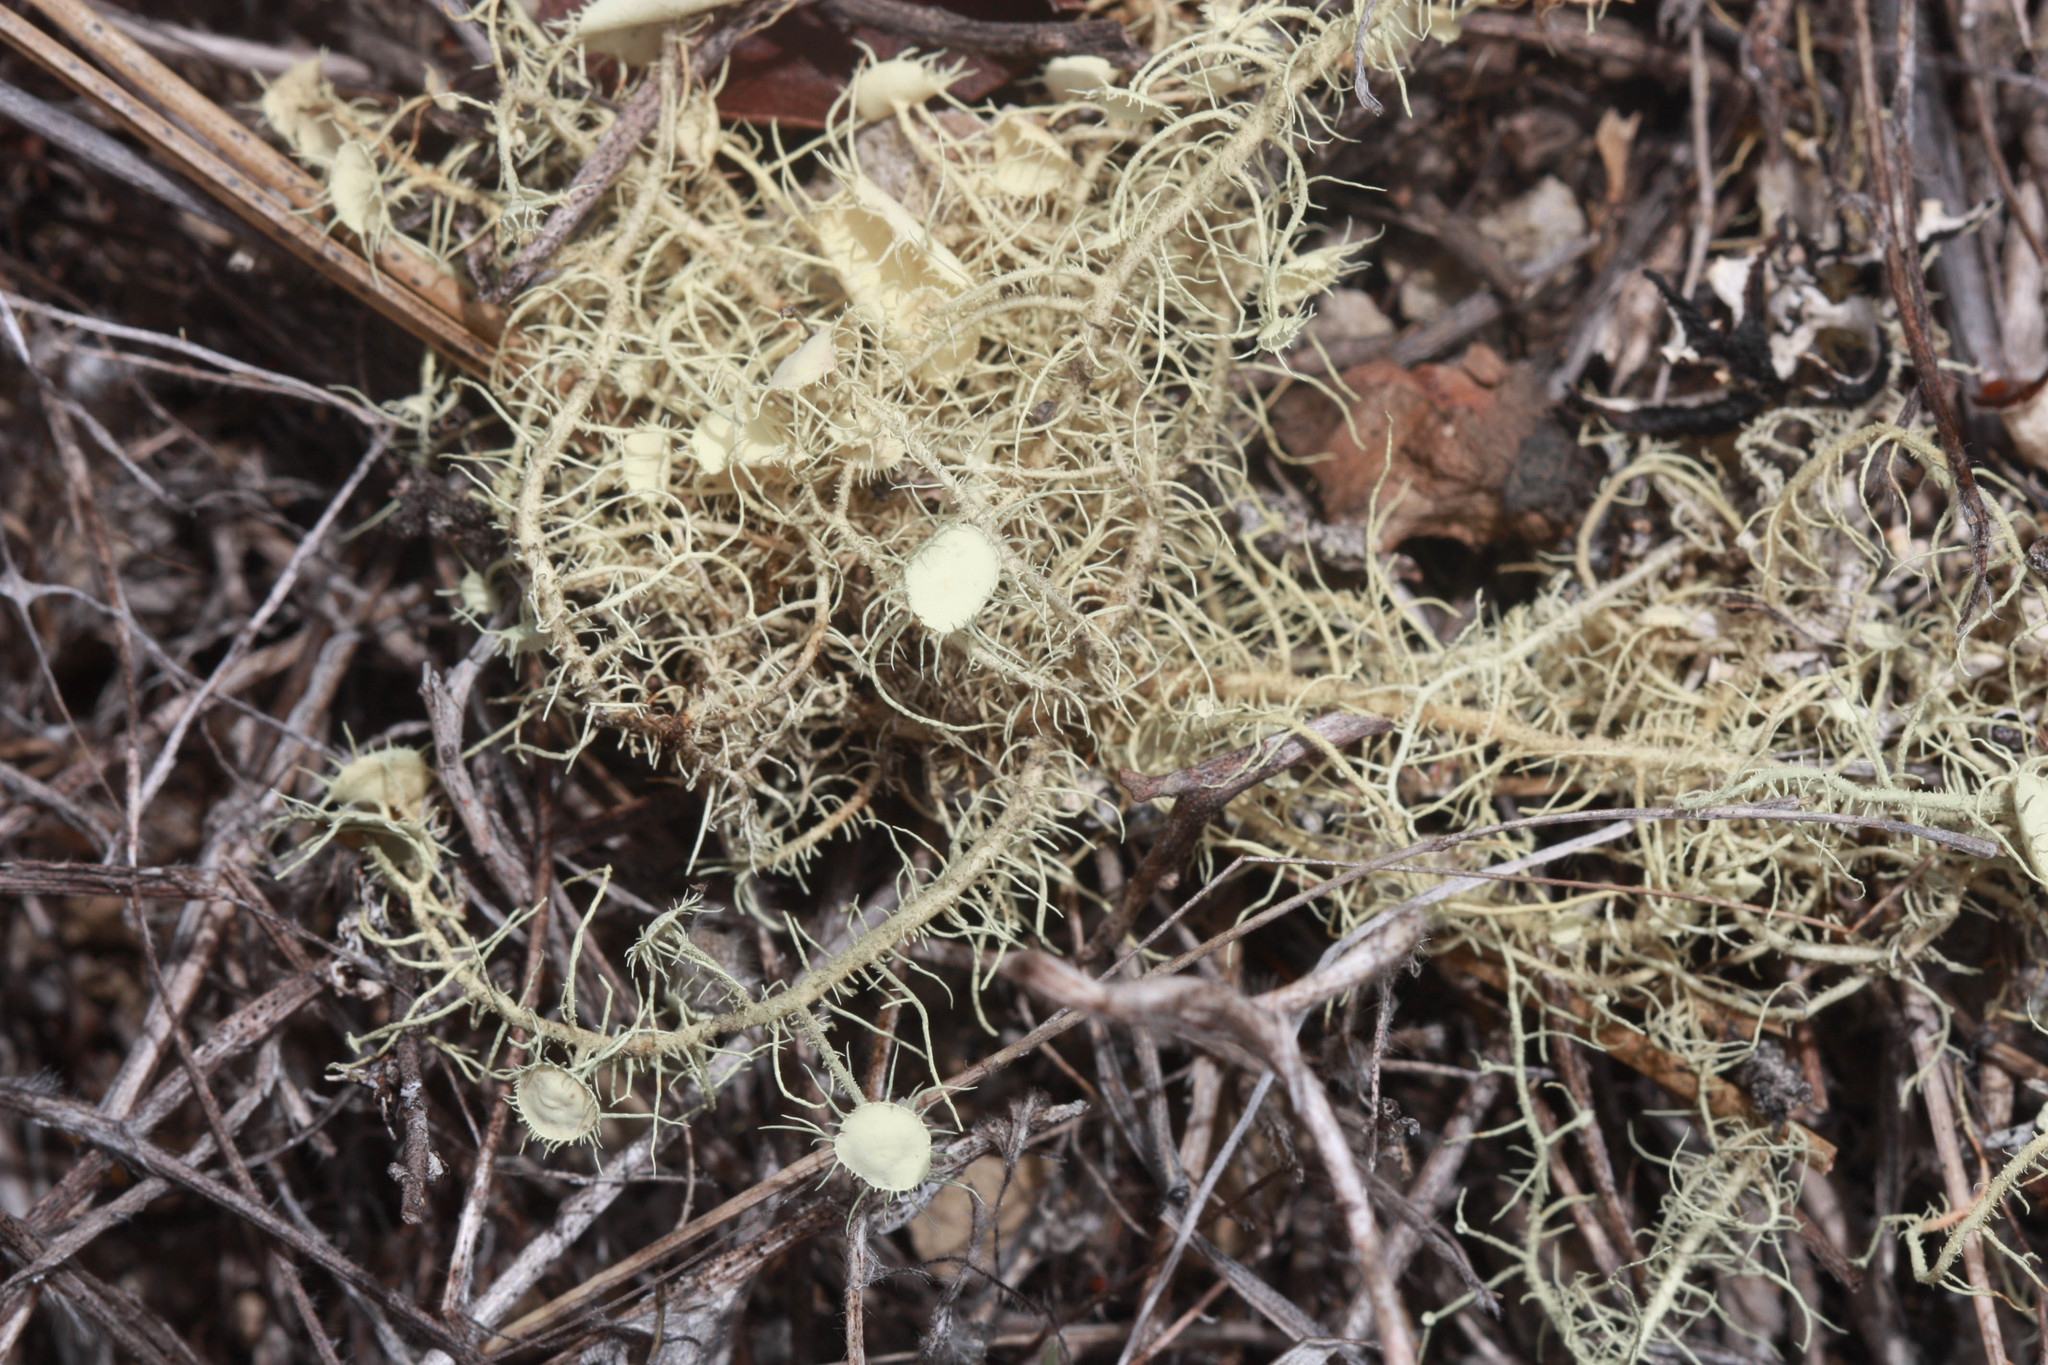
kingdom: Fungi
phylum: Ascomycota
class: Lecanoromycetes
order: Lecanorales
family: Parmeliaceae
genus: Usnea
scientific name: Usnea intermedia
